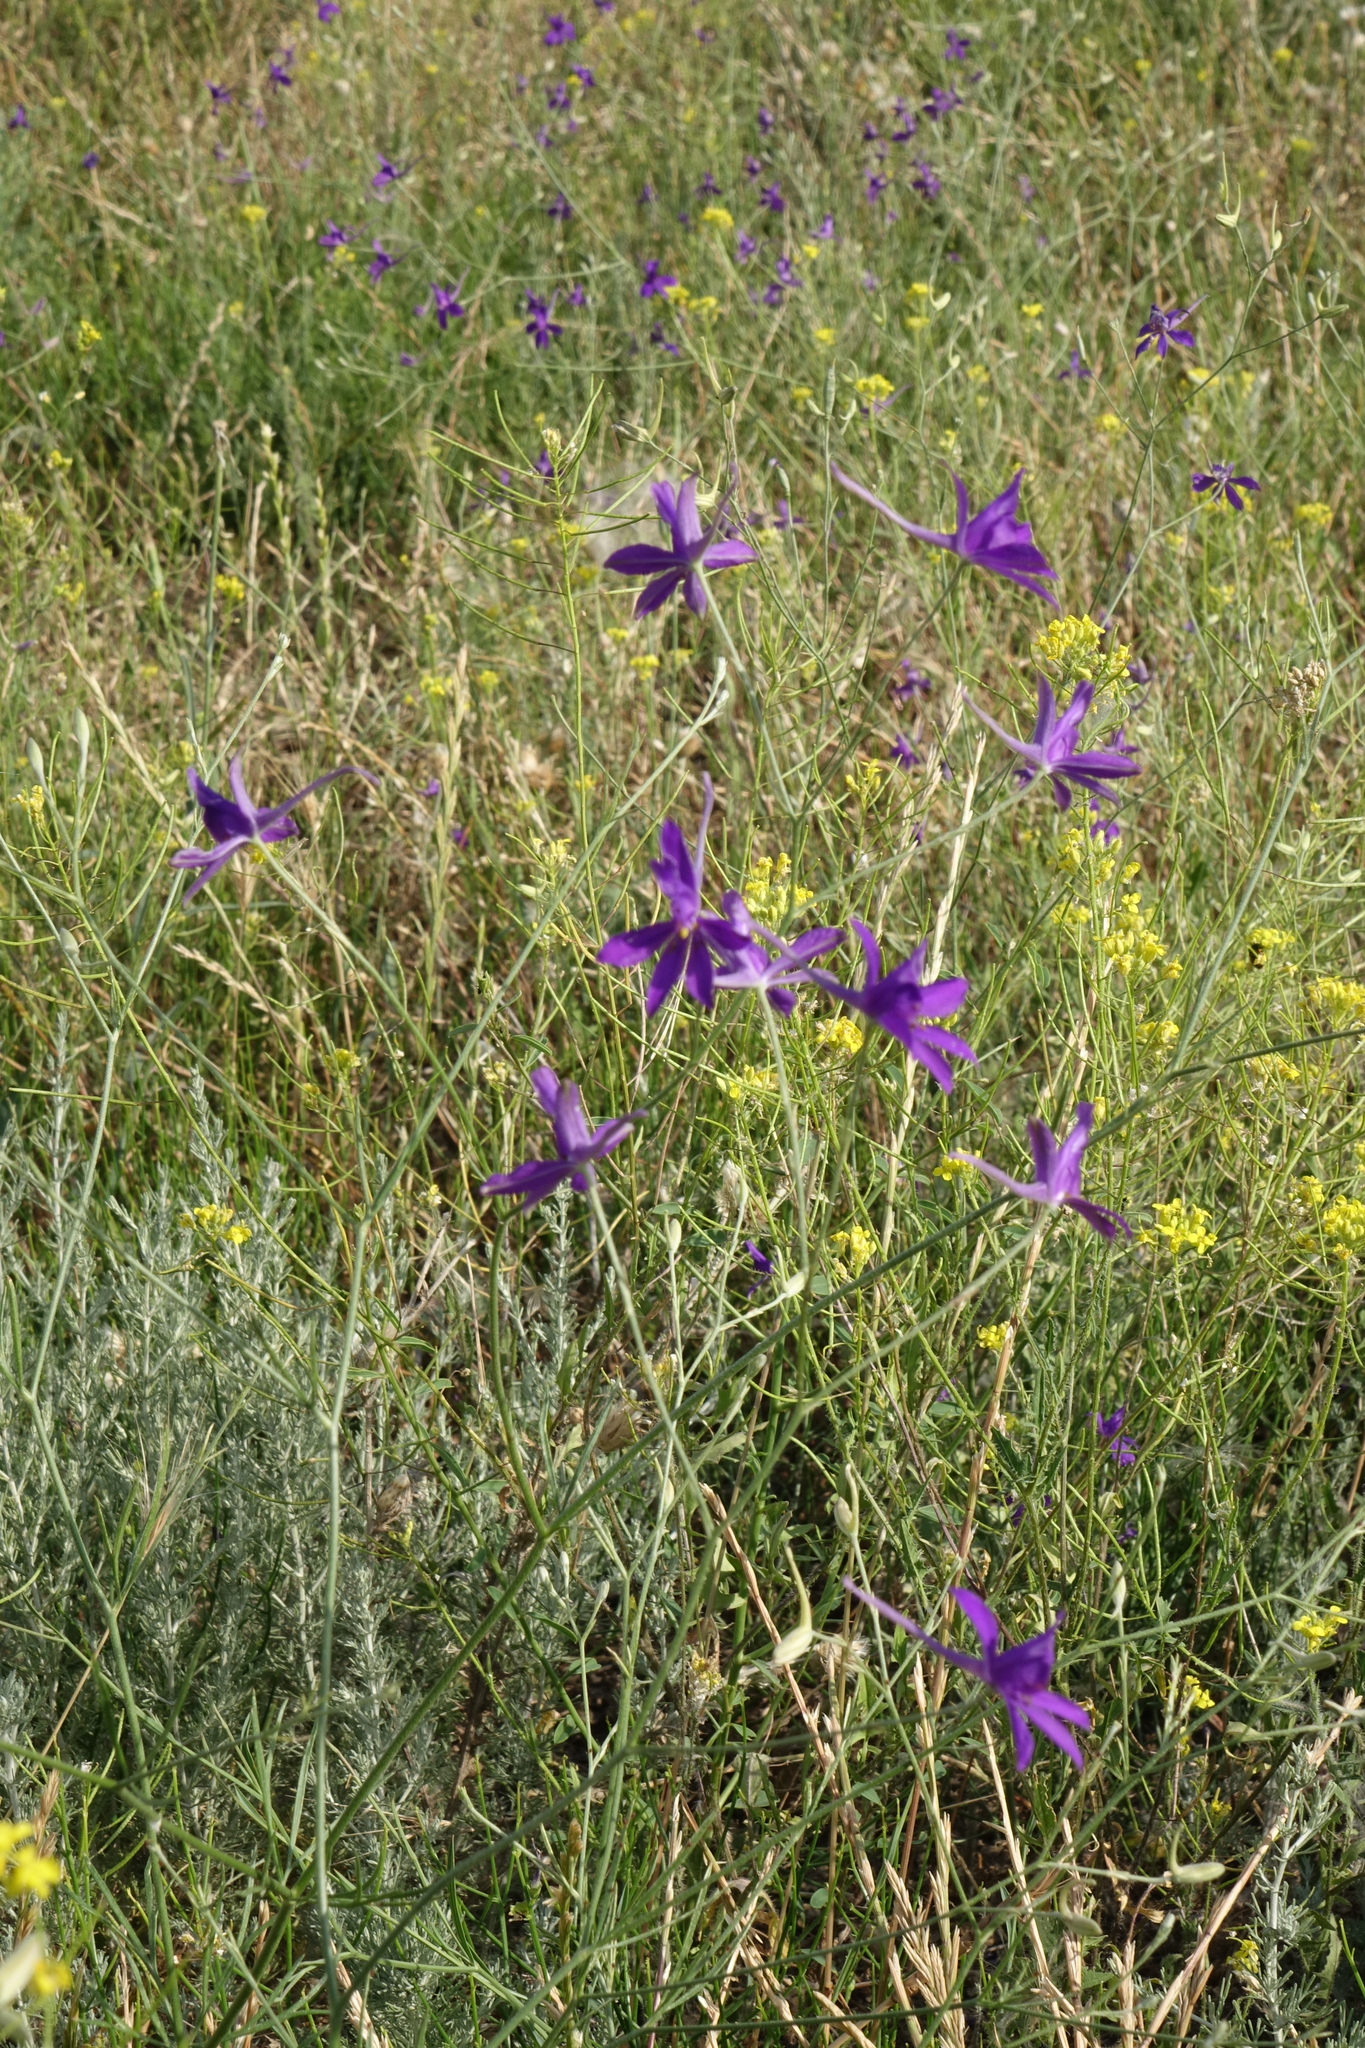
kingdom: Plantae
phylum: Tracheophyta
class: Magnoliopsida
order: Ranunculales
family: Ranunculaceae
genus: Delphinium
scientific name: Delphinium consolida
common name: Branching larkspur
